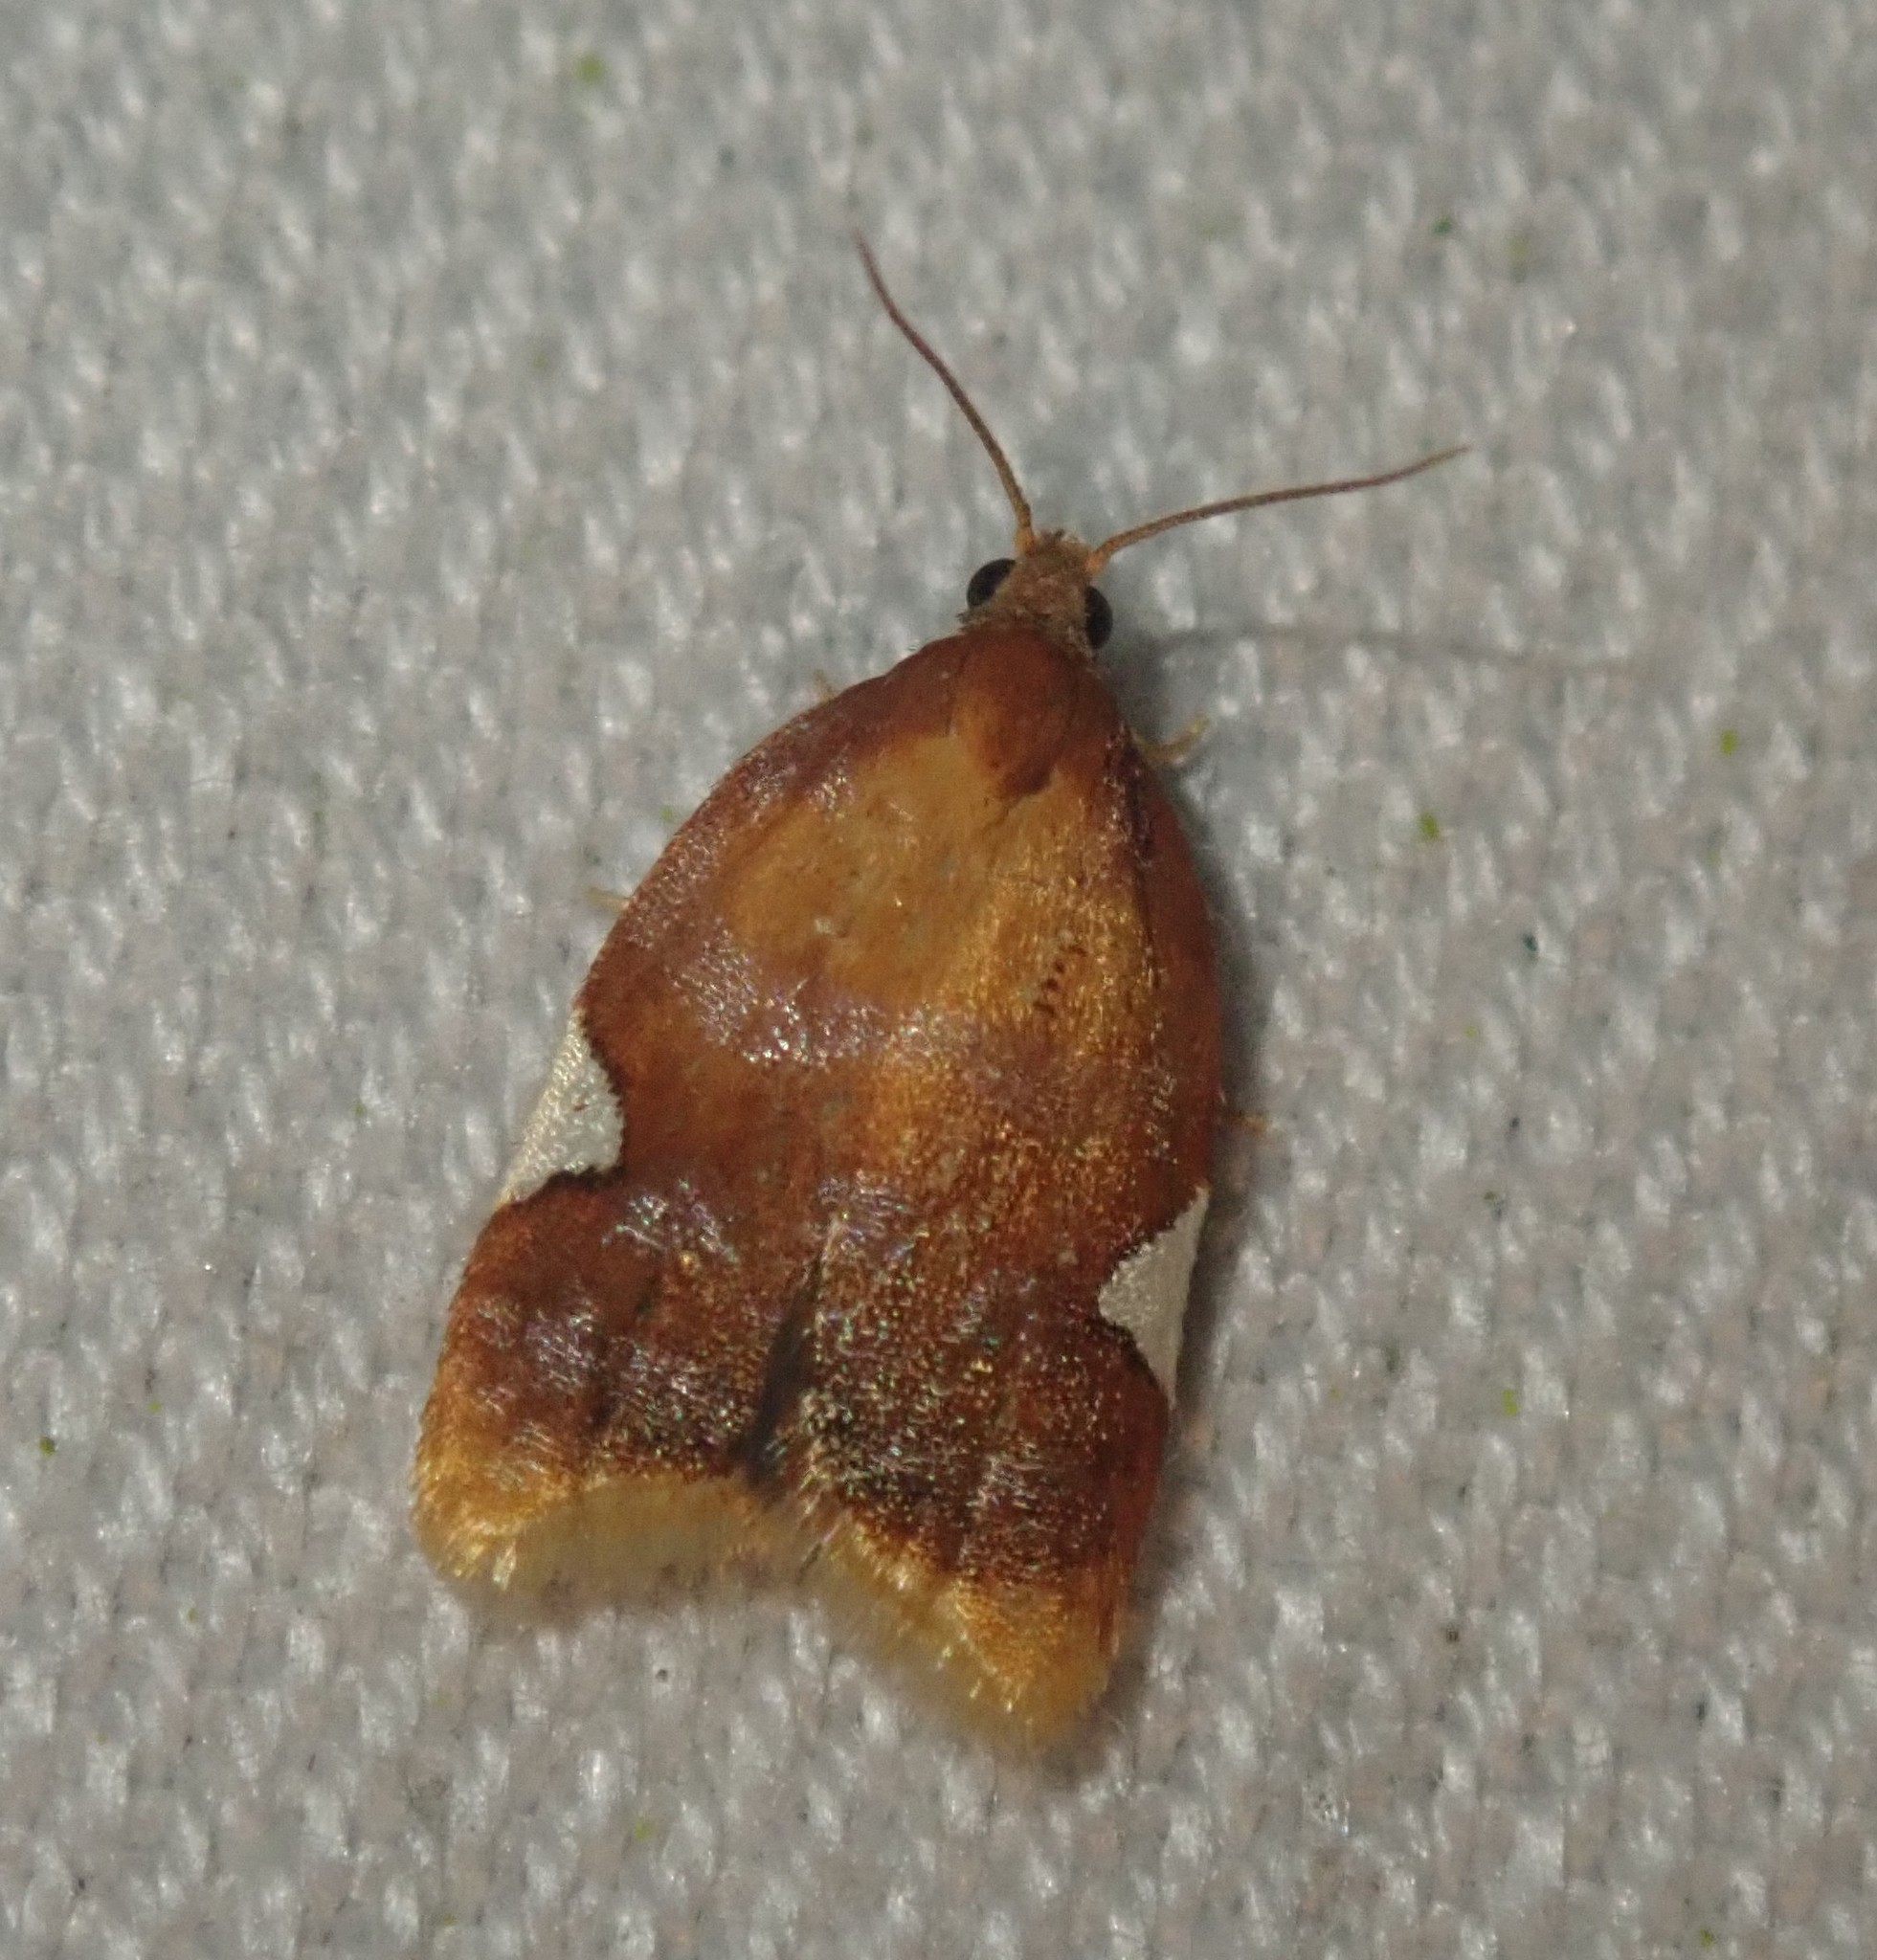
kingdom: Animalia
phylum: Arthropoda
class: Insecta
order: Lepidoptera
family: Tortricidae
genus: Acleris
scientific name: Acleris holmiana
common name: Golden leafroller moth
